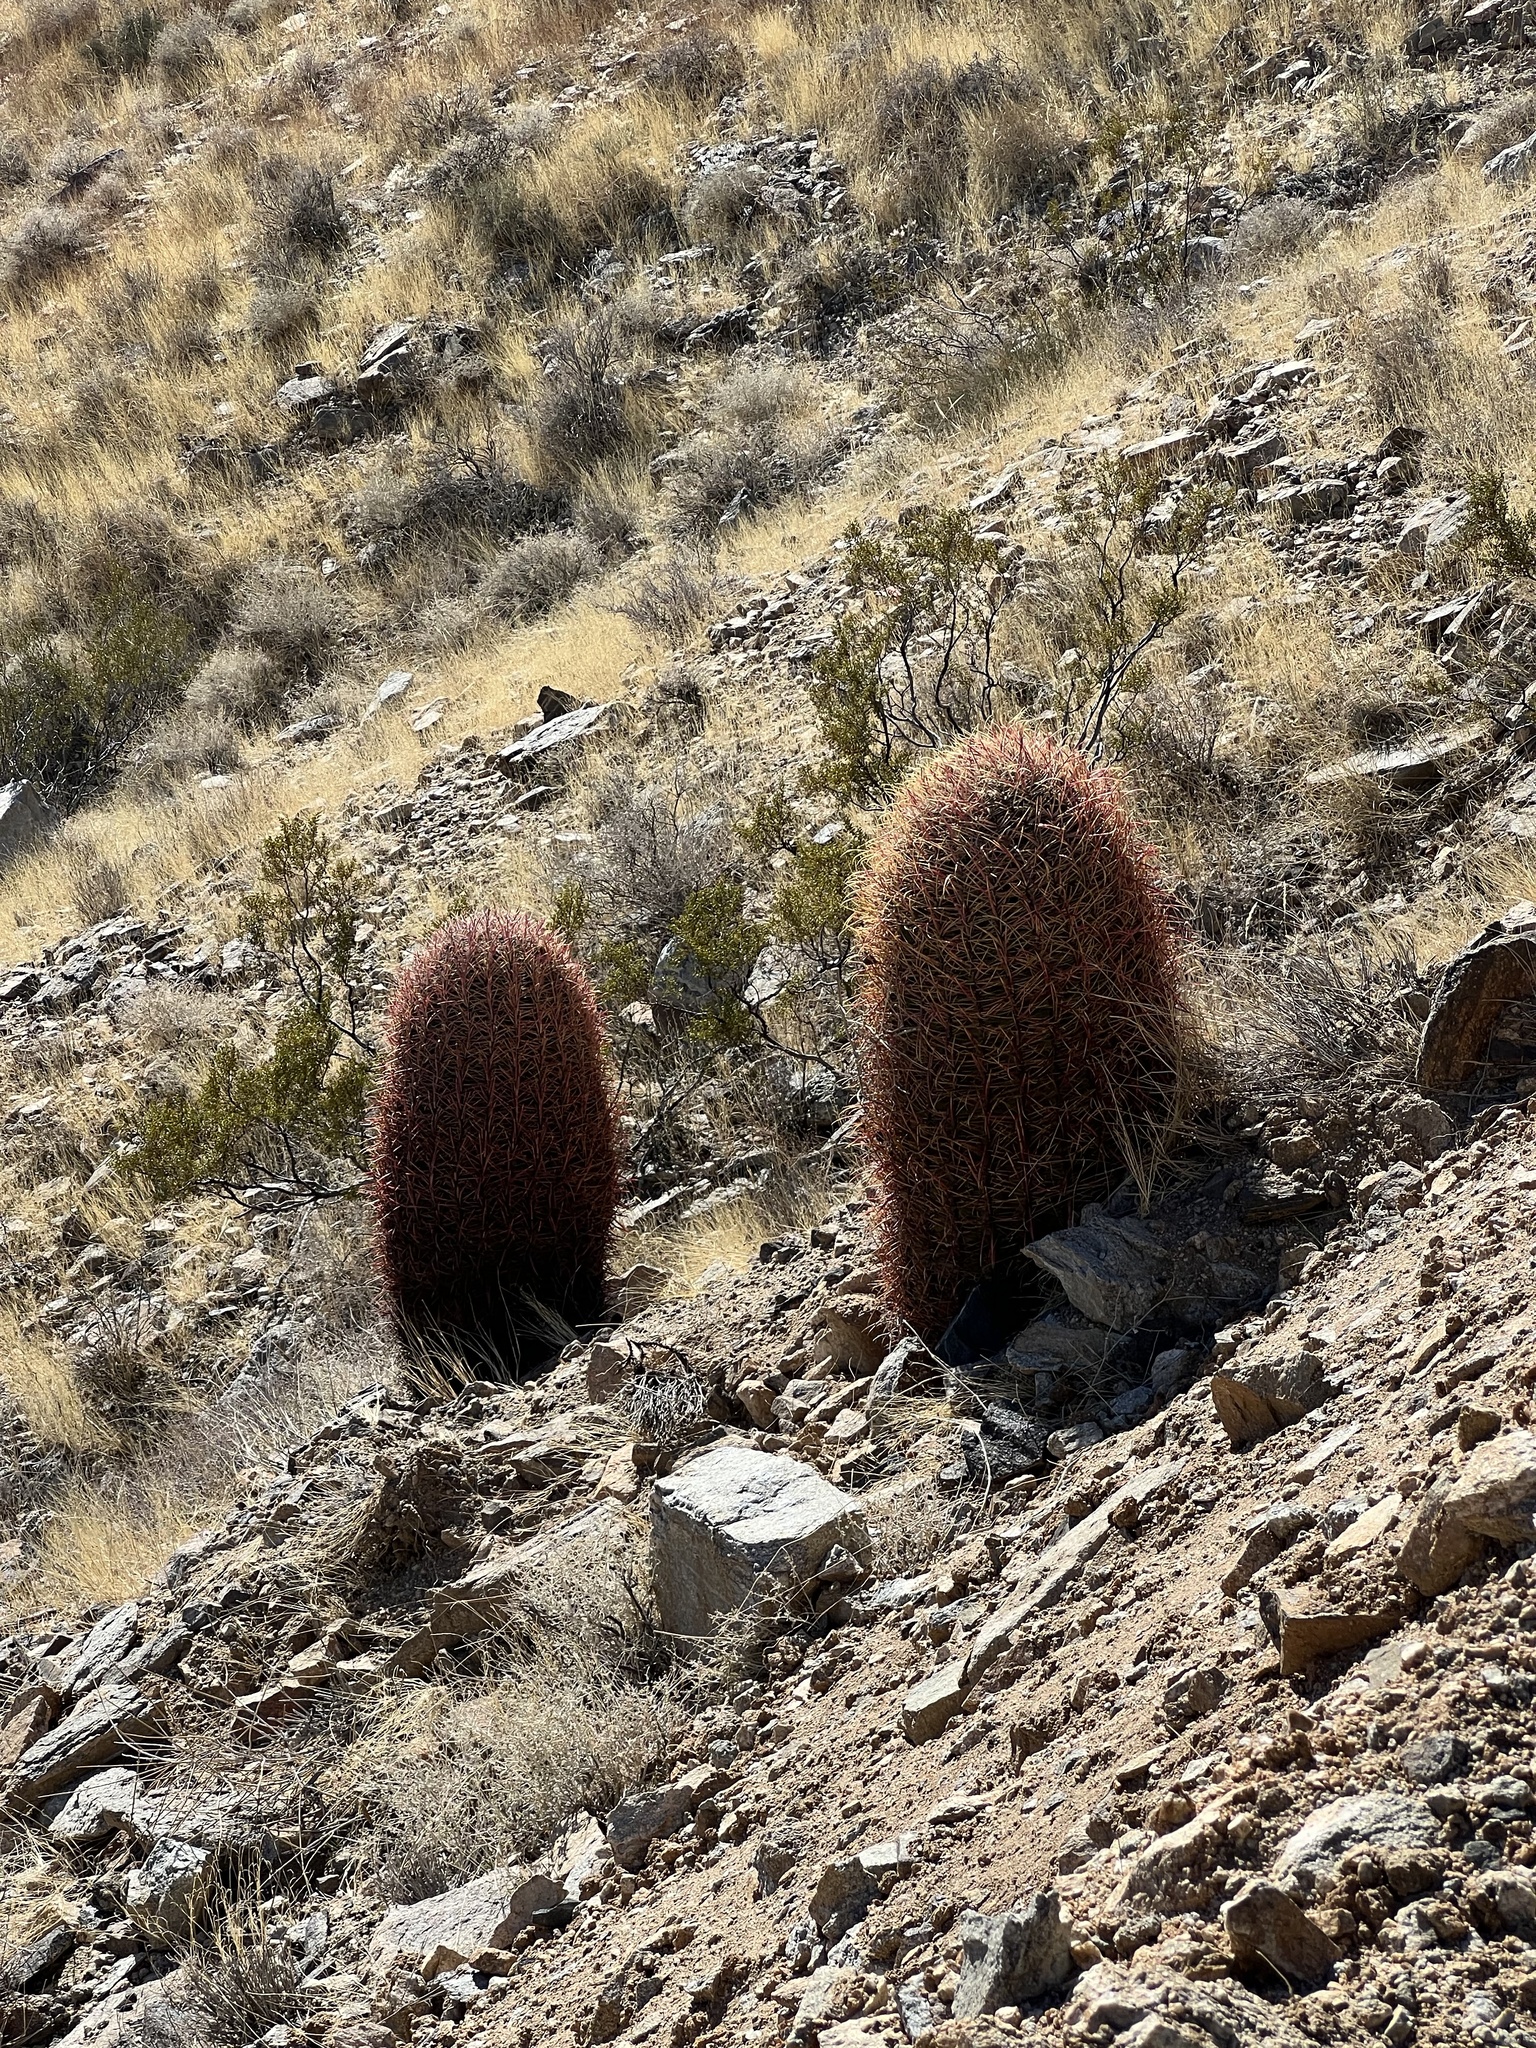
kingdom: Plantae
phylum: Tracheophyta
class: Magnoliopsida
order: Caryophyllales
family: Cactaceae
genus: Ferocactus
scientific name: Ferocactus cylindraceus
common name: California barrel cactus
